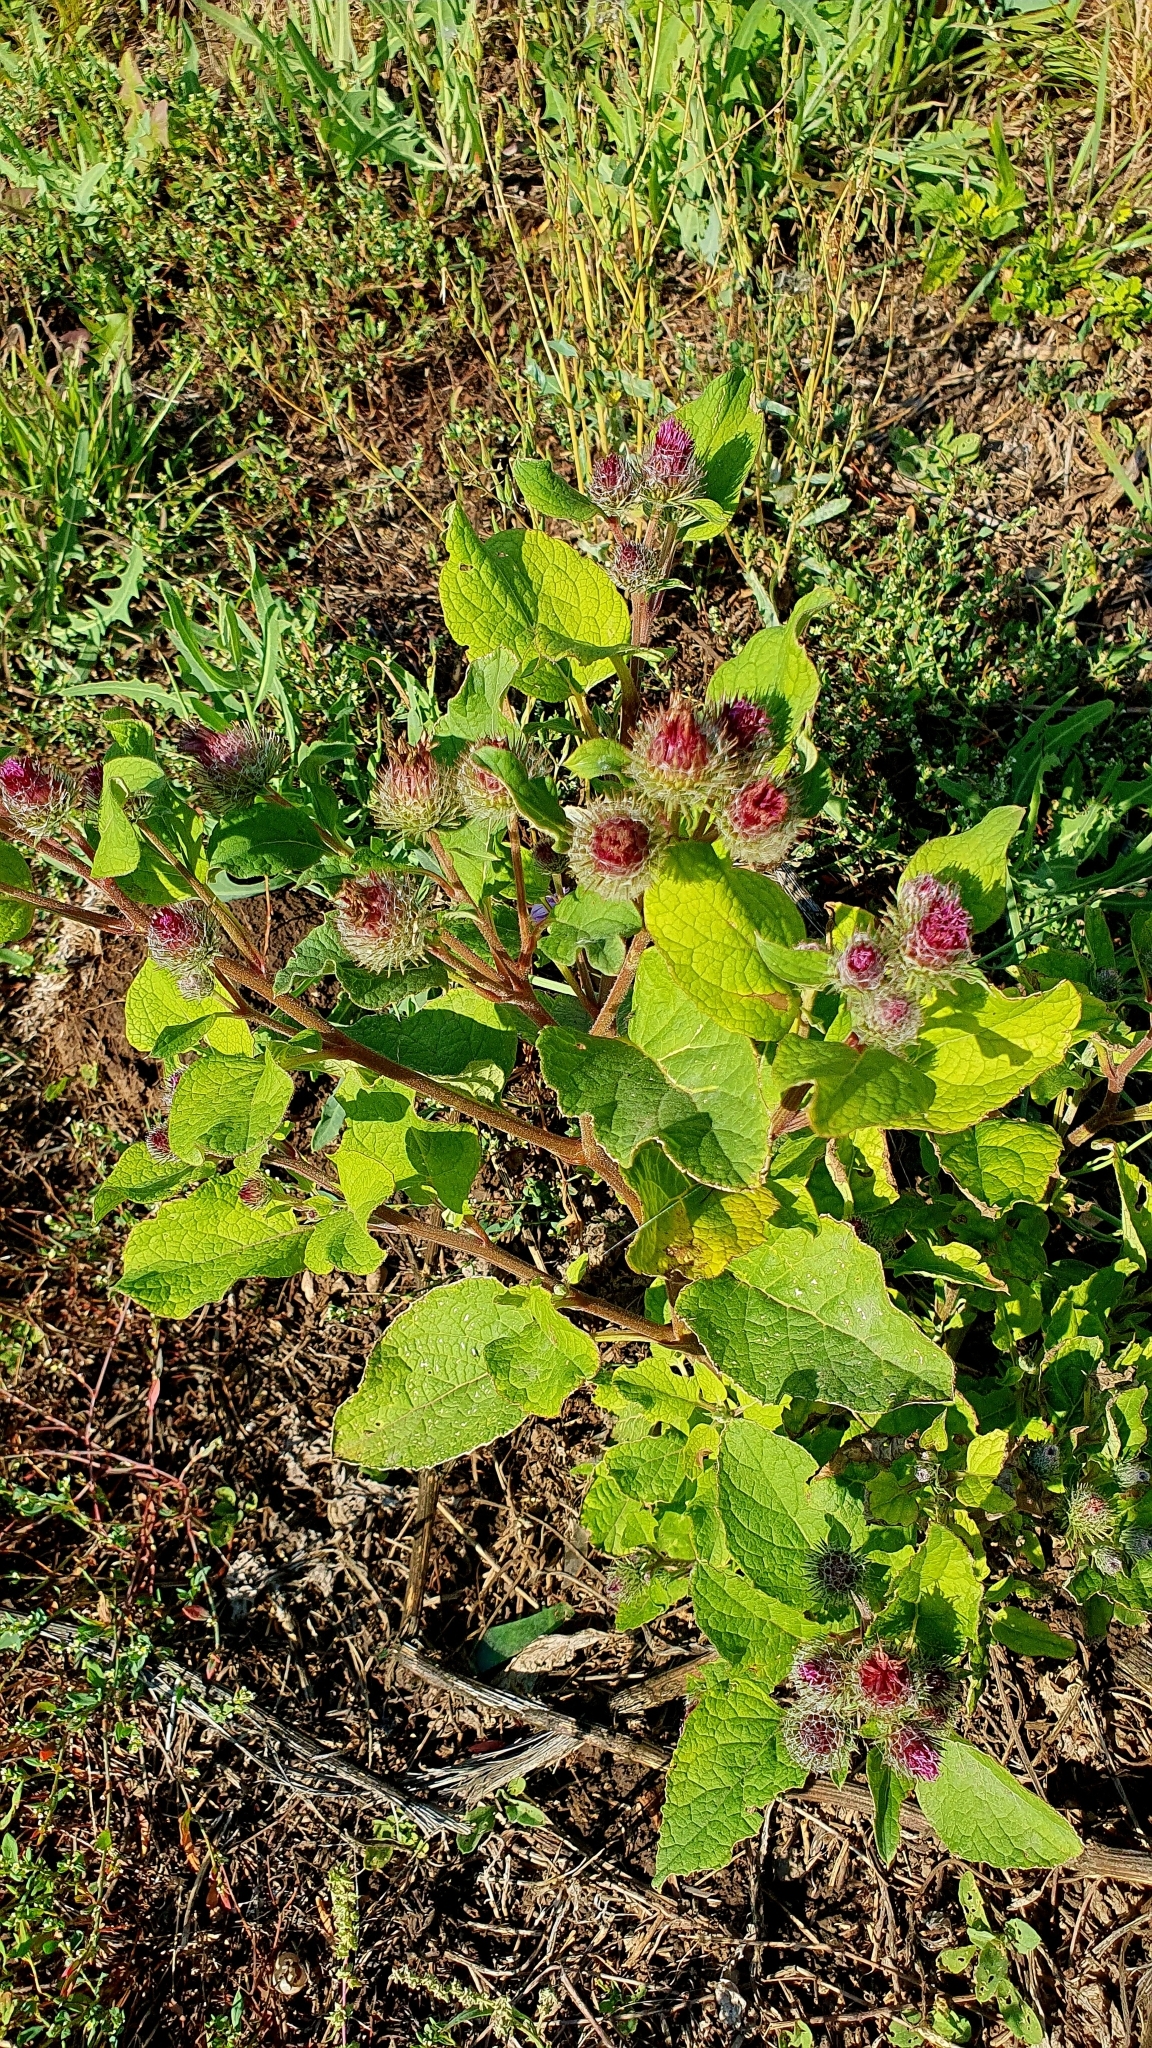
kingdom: Plantae
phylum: Tracheophyta
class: Magnoliopsida
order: Asterales
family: Asteraceae
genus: Arctium
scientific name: Arctium tomentosum
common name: Woolly burdock
